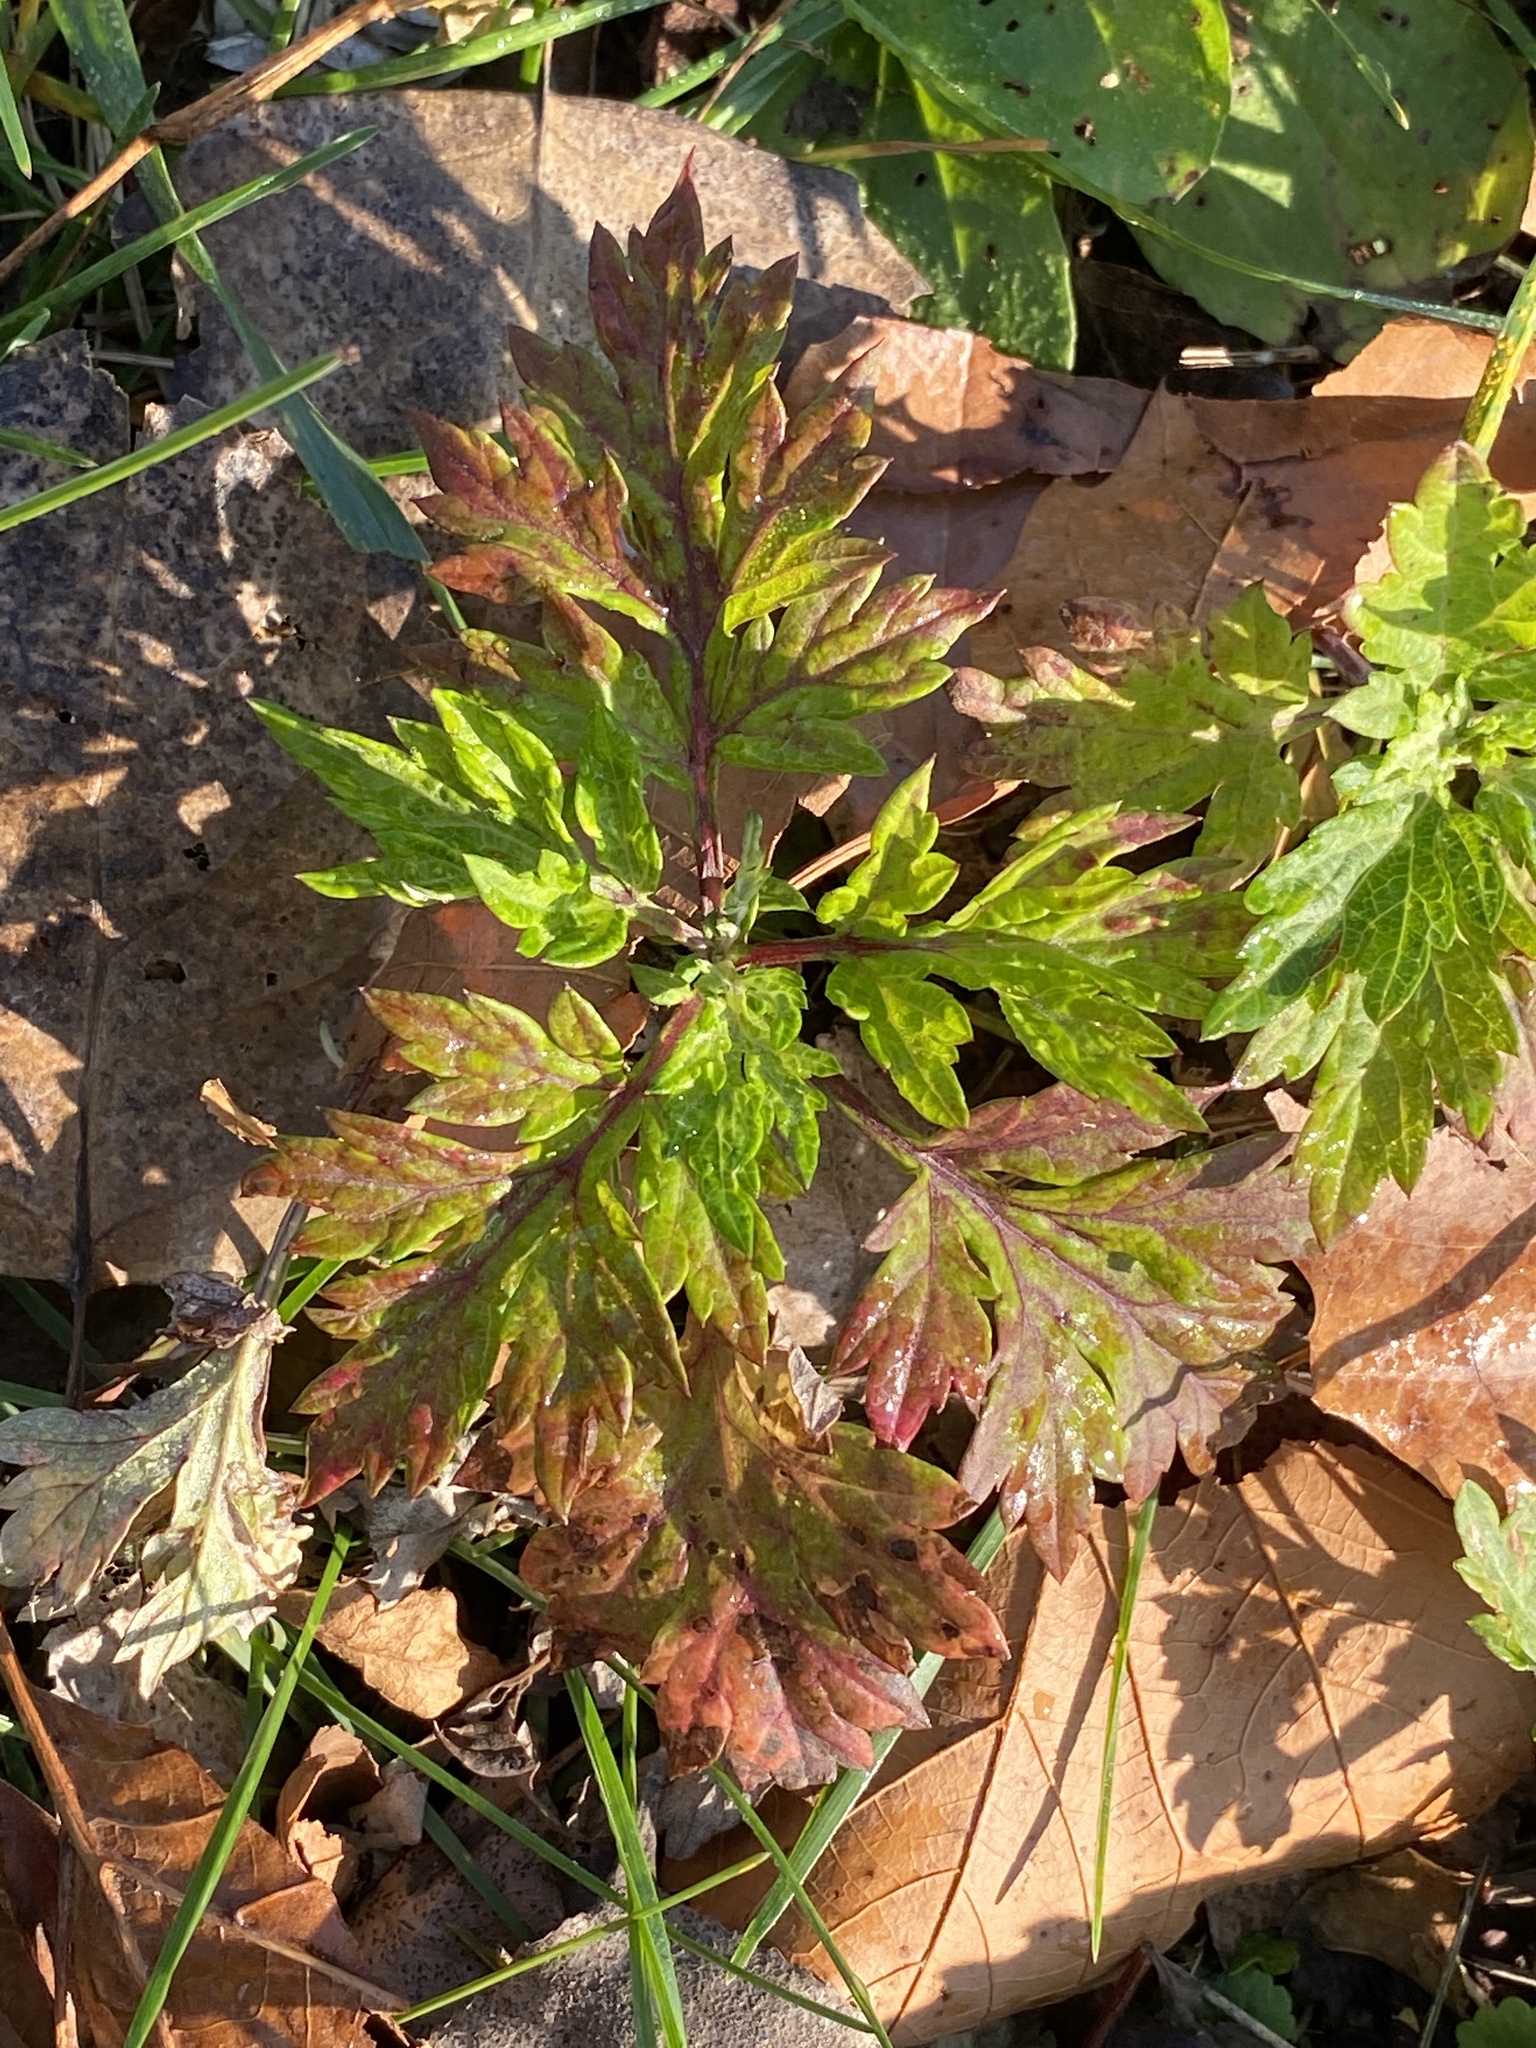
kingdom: Plantae
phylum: Tracheophyta
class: Magnoliopsida
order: Asterales
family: Asteraceae
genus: Artemisia
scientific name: Artemisia vulgaris
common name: Mugwort
